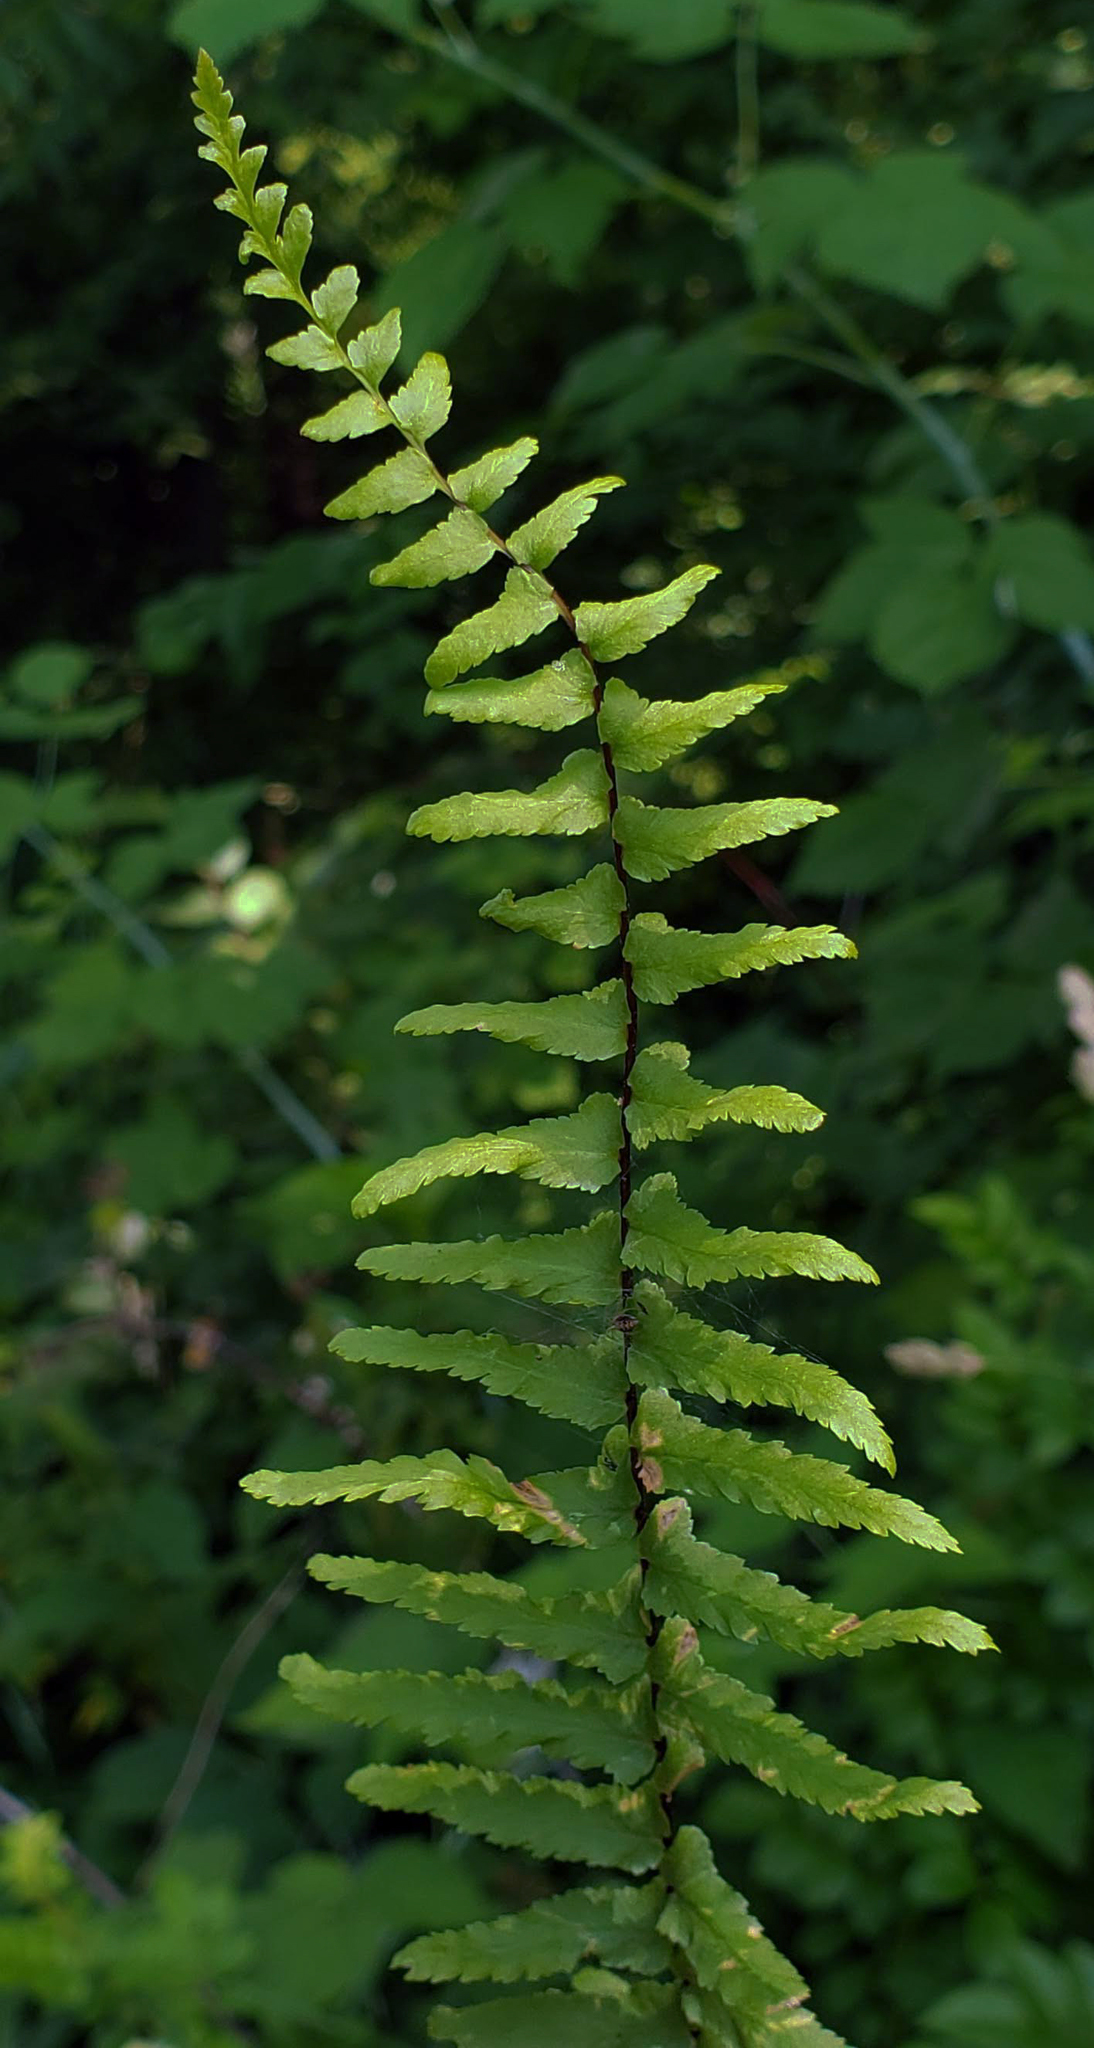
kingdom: Plantae
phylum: Tracheophyta
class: Polypodiopsida
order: Polypodiales
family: Aspleniaceae
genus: Asplenium
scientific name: Asplenium platyneuron
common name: Ebony spleenwort
